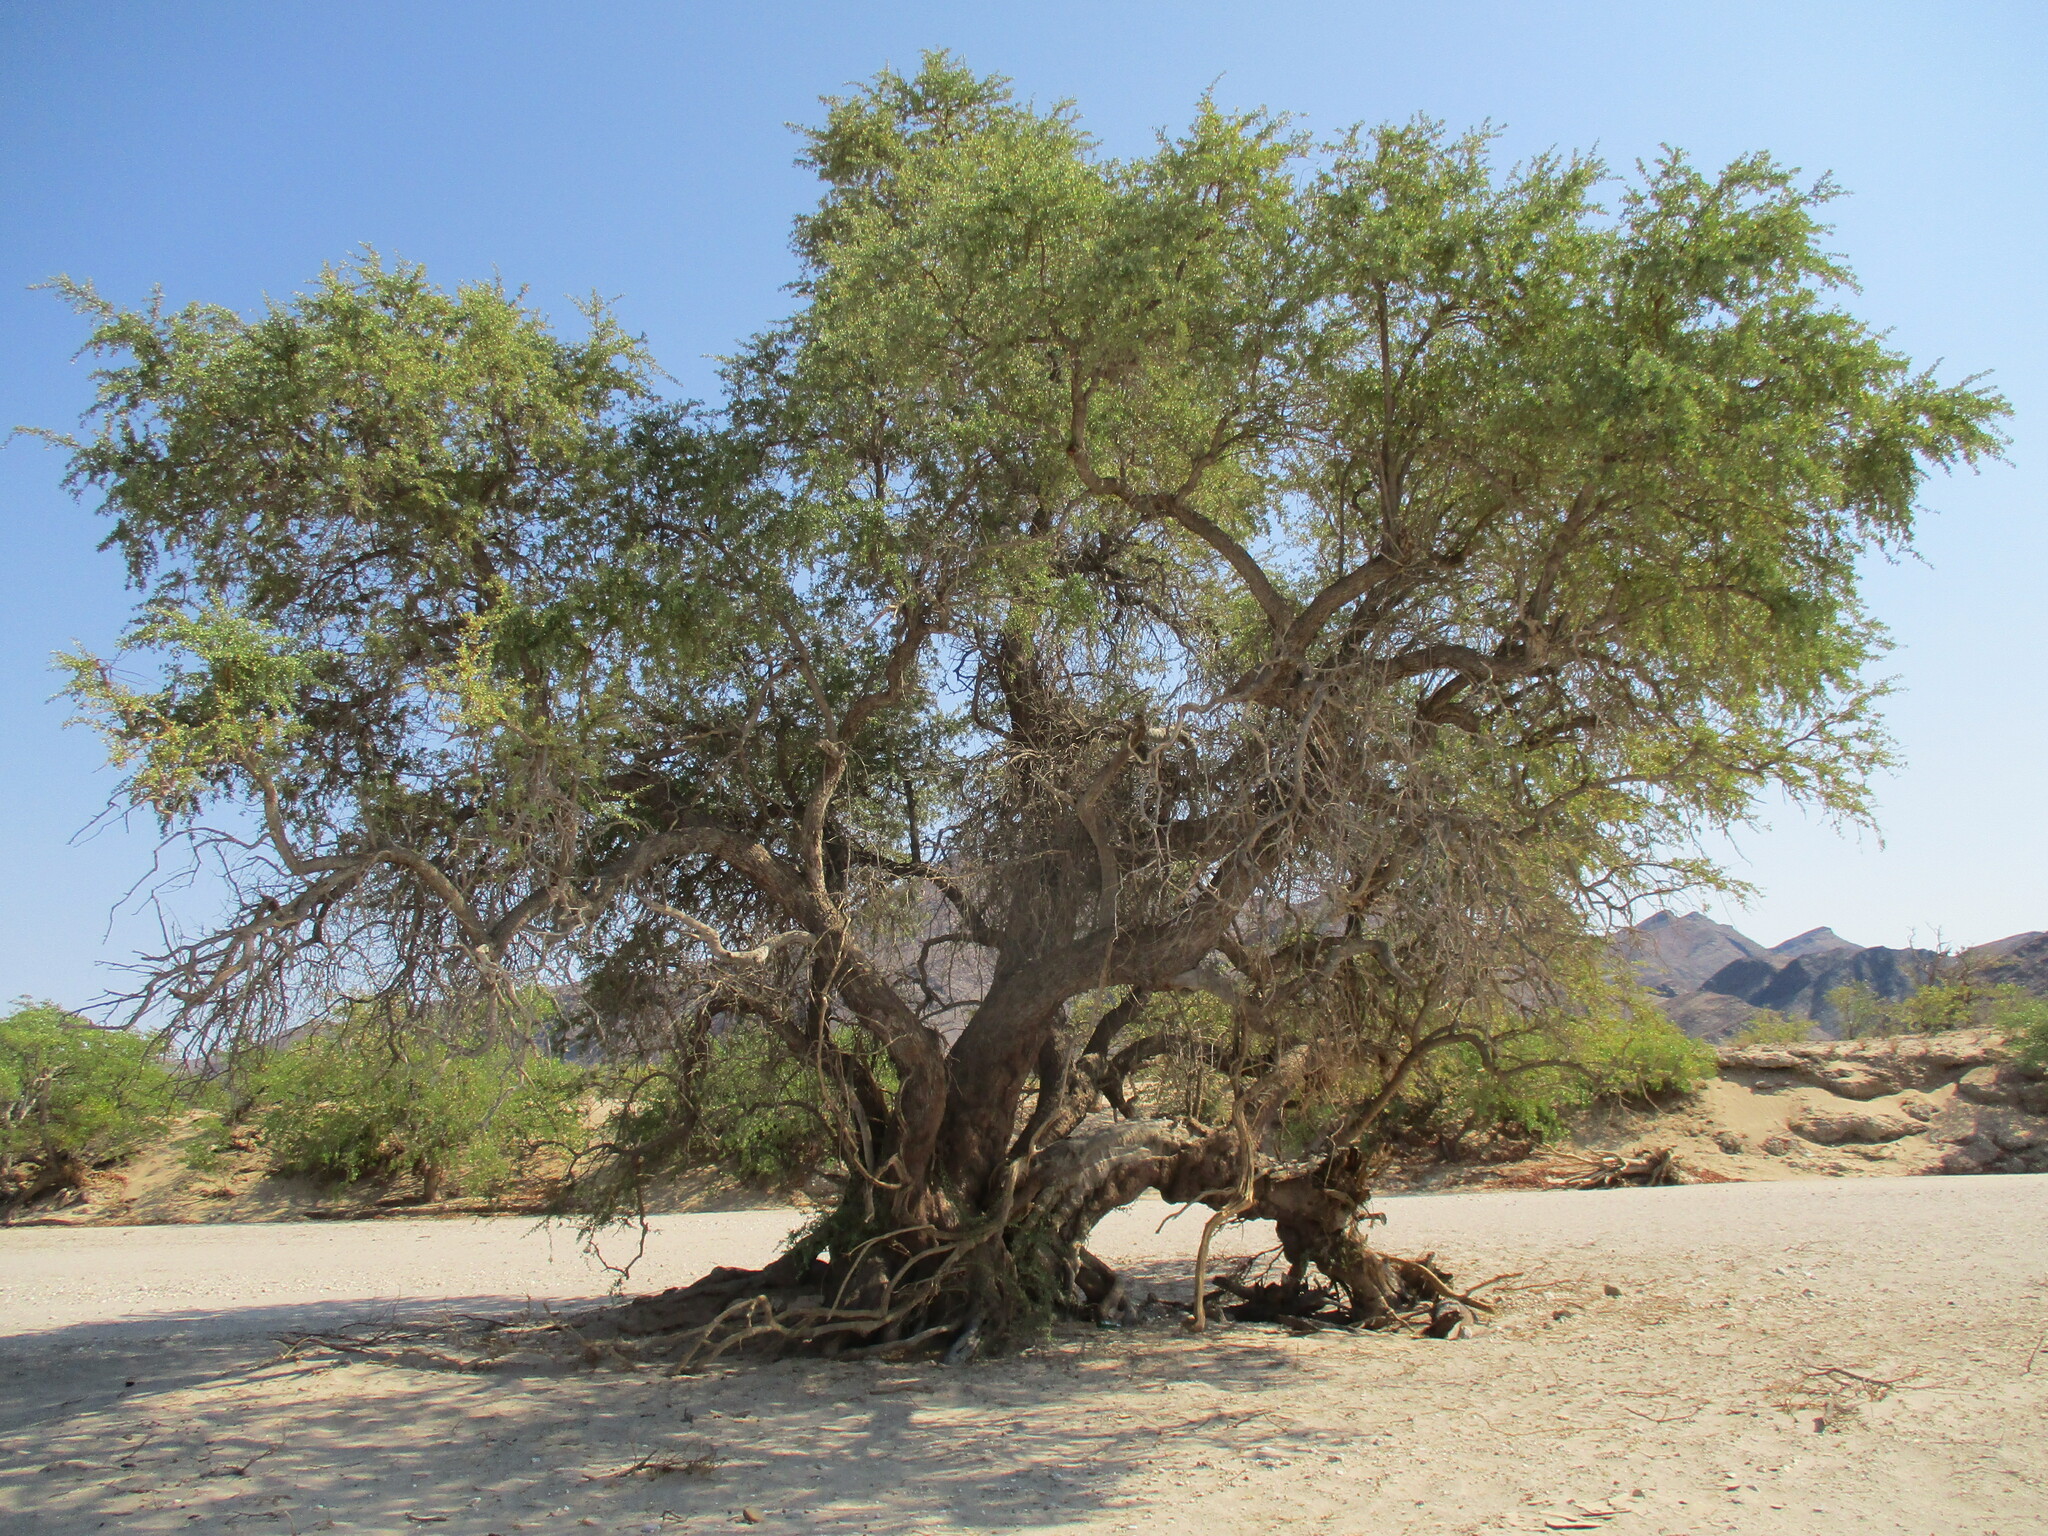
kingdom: Plantae
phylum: Tracheophyta
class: Magnoliopsida
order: Myrtales
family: Combretaceae
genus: Combretum
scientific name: Combretum imberbe
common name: Leadwood
